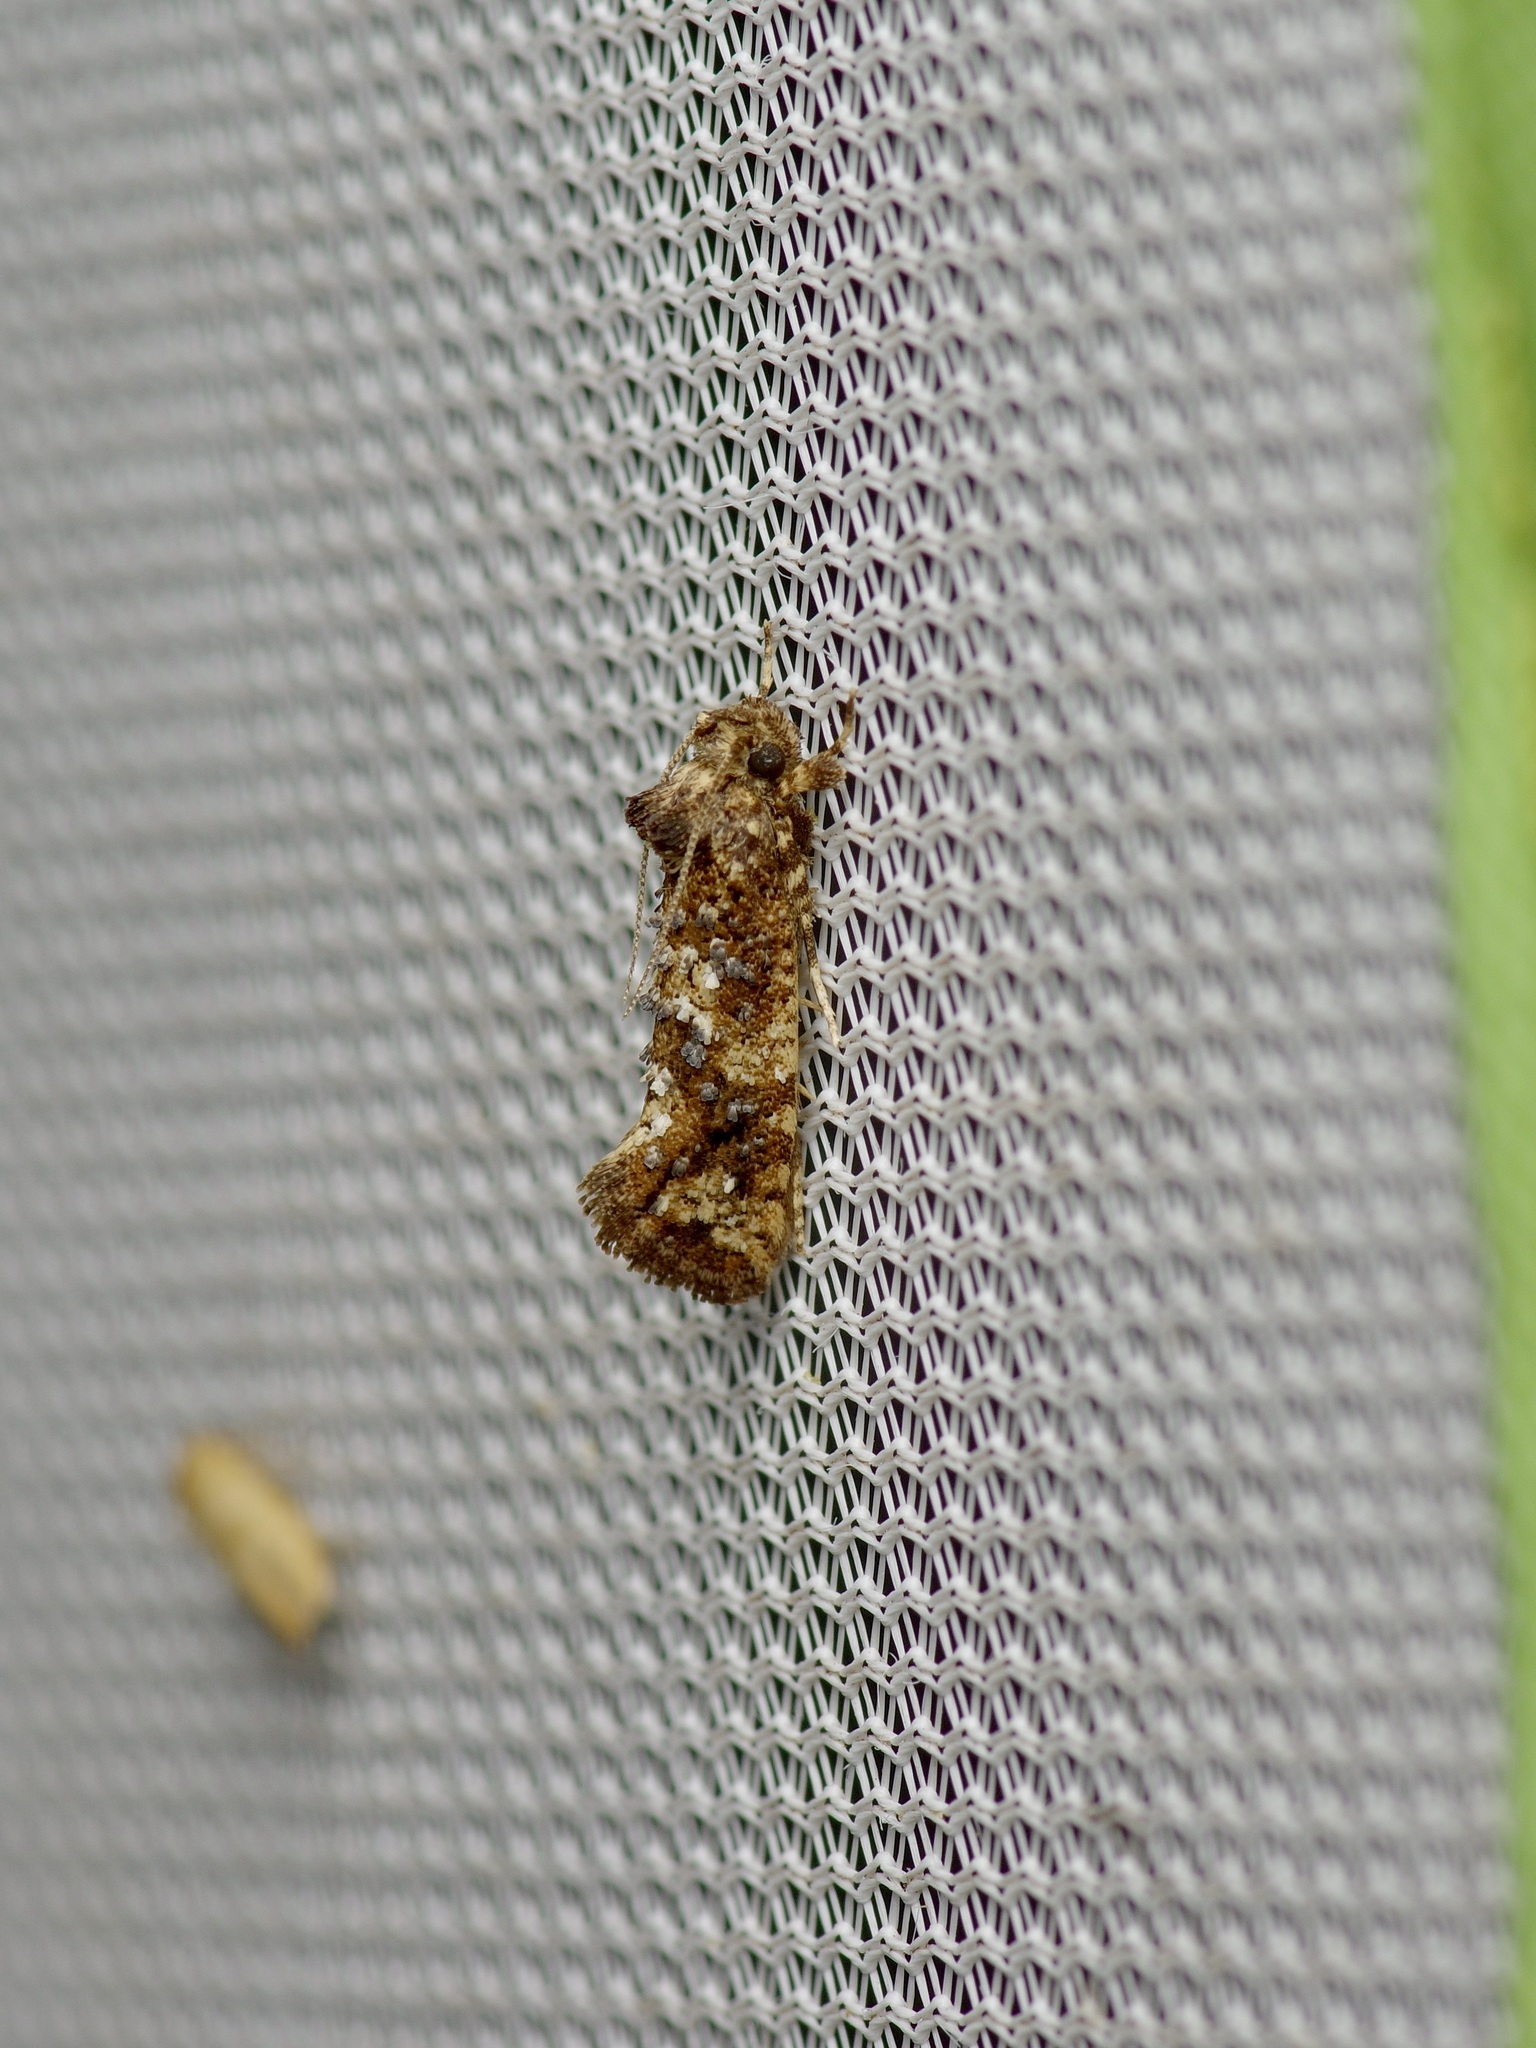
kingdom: Animalia
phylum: Arthropoda
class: Insecta
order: Lepidoptera
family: Tineidae
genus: Acrolophus
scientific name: Acrolophus cressoni
